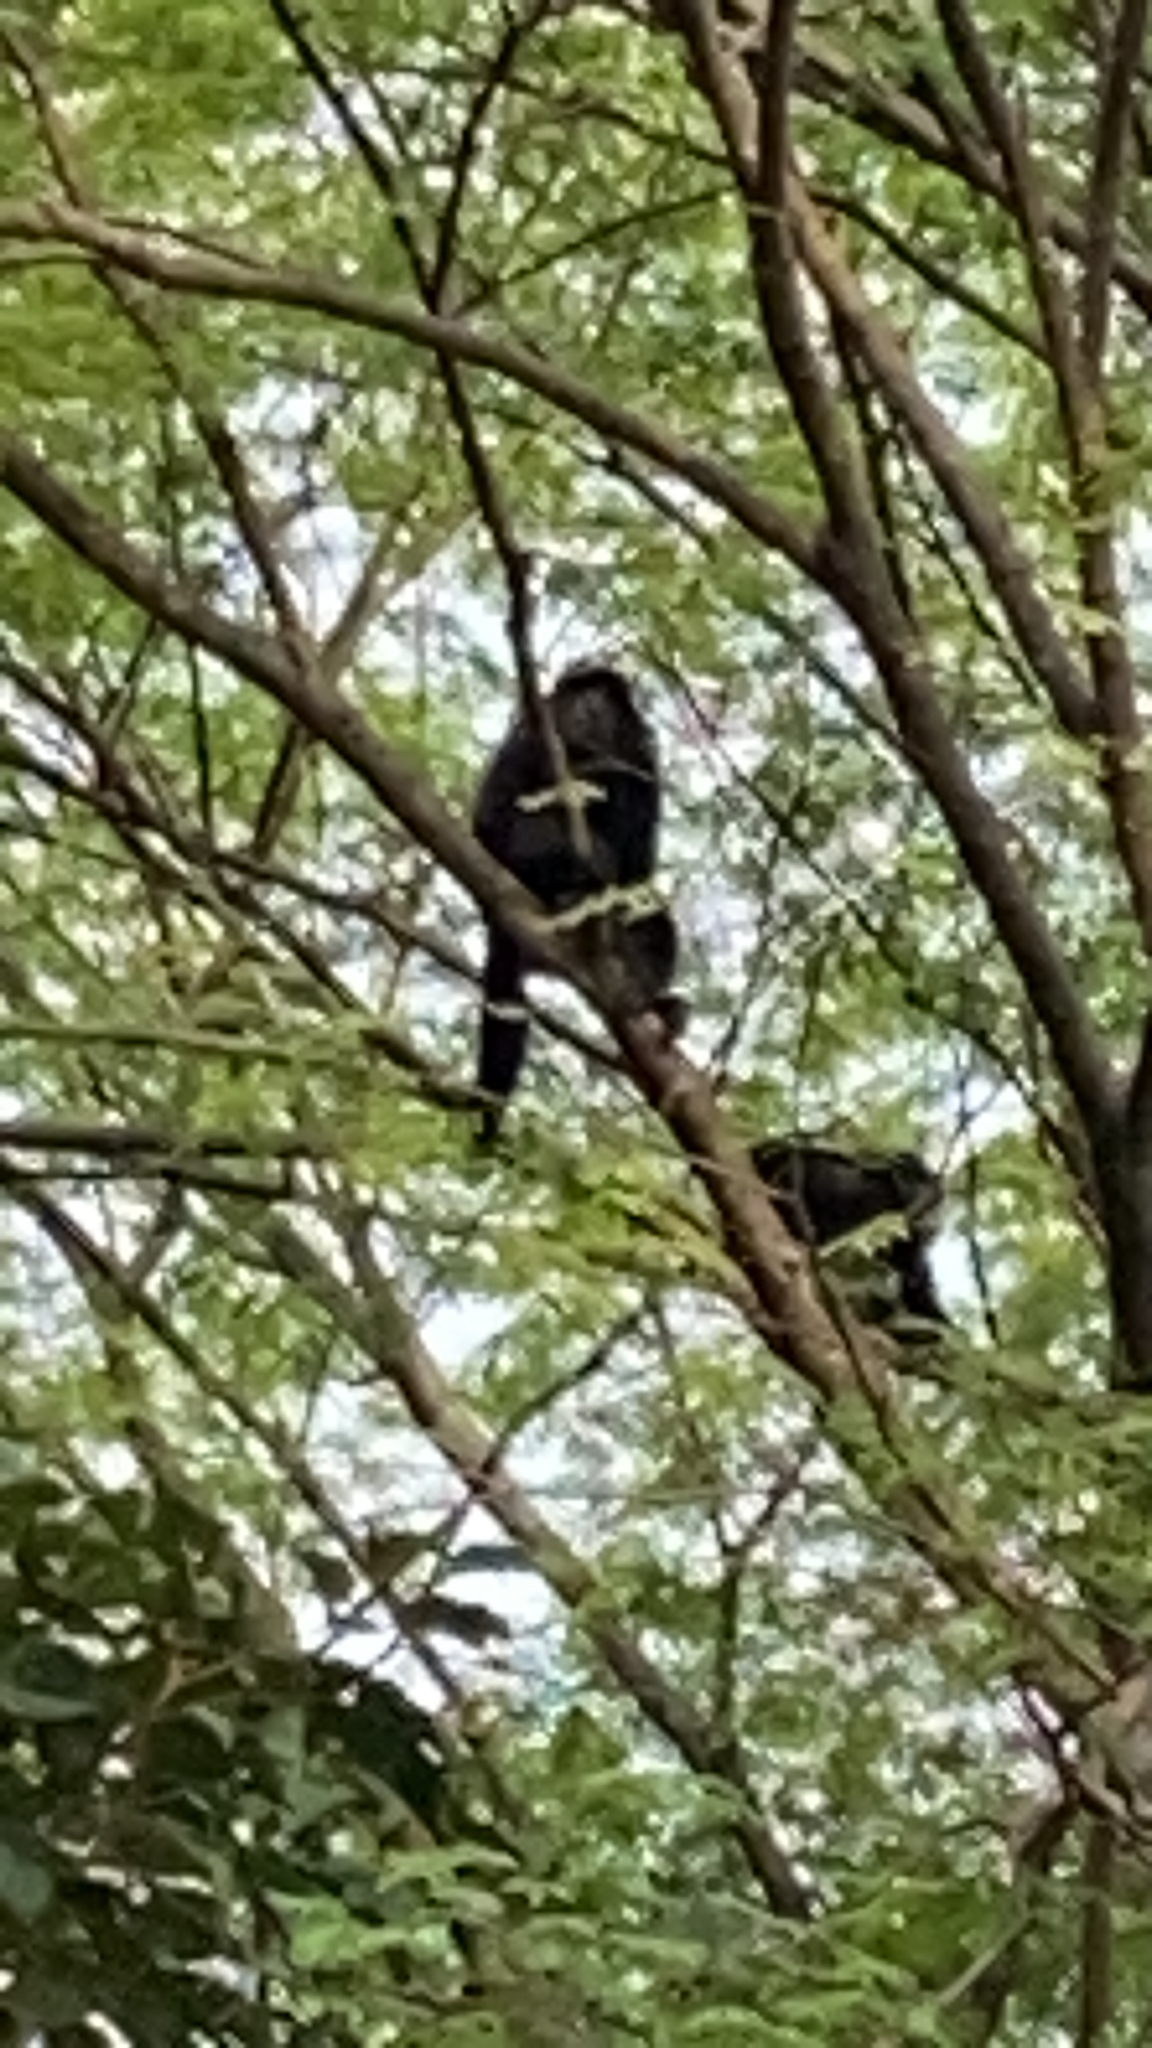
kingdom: Animalia
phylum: Chordata
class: Mammalia
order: Primates
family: Atelidae
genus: Alouatta
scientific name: Alouatta palliata
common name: Mantled howler
